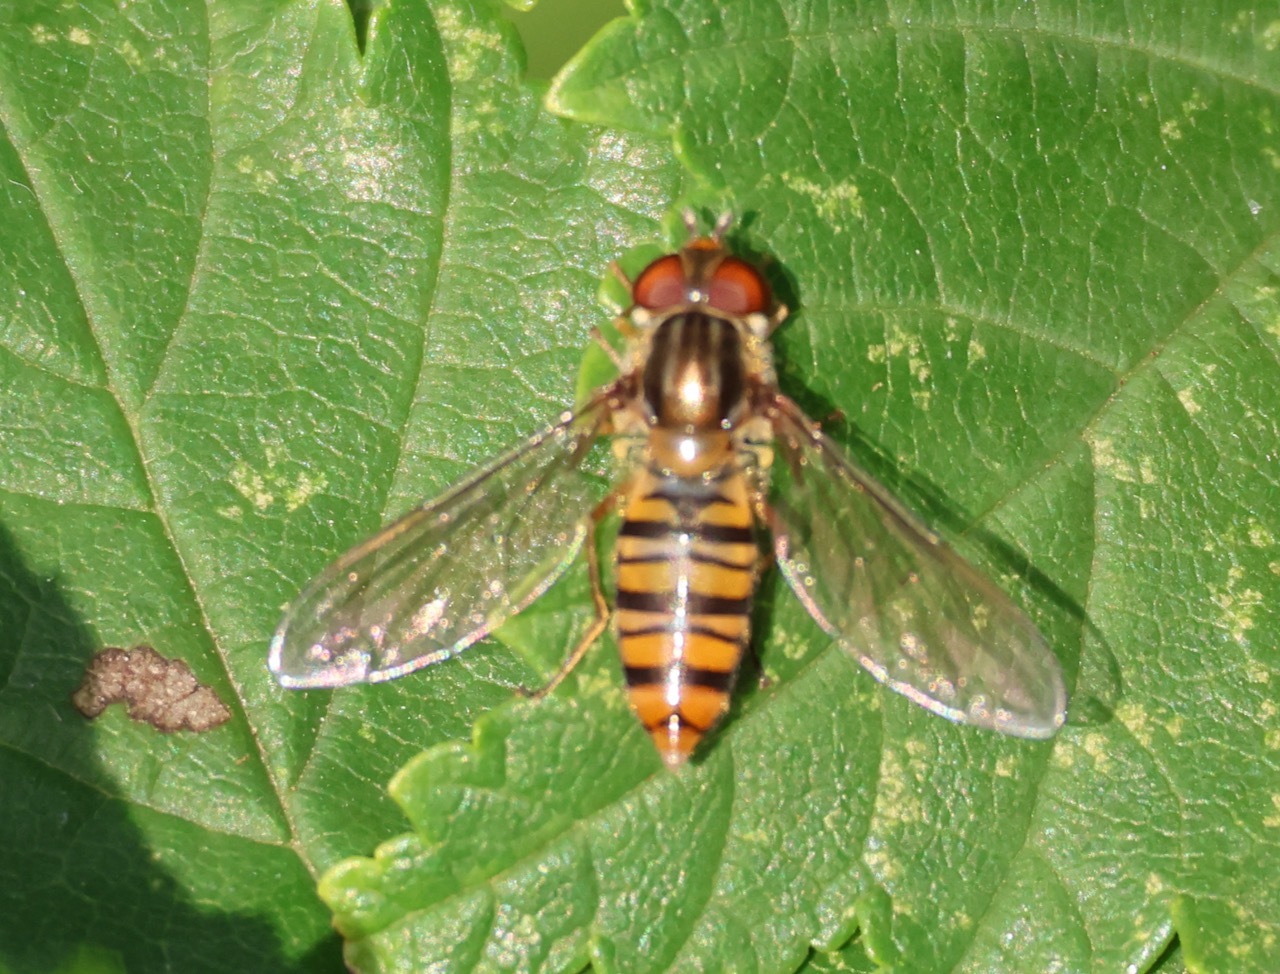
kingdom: Animalia
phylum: Arthropoda
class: Insecta
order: Diptera
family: Syrphidae
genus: Episyrphus
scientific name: Episyrphus balteatus
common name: Marmalade hoverfly
